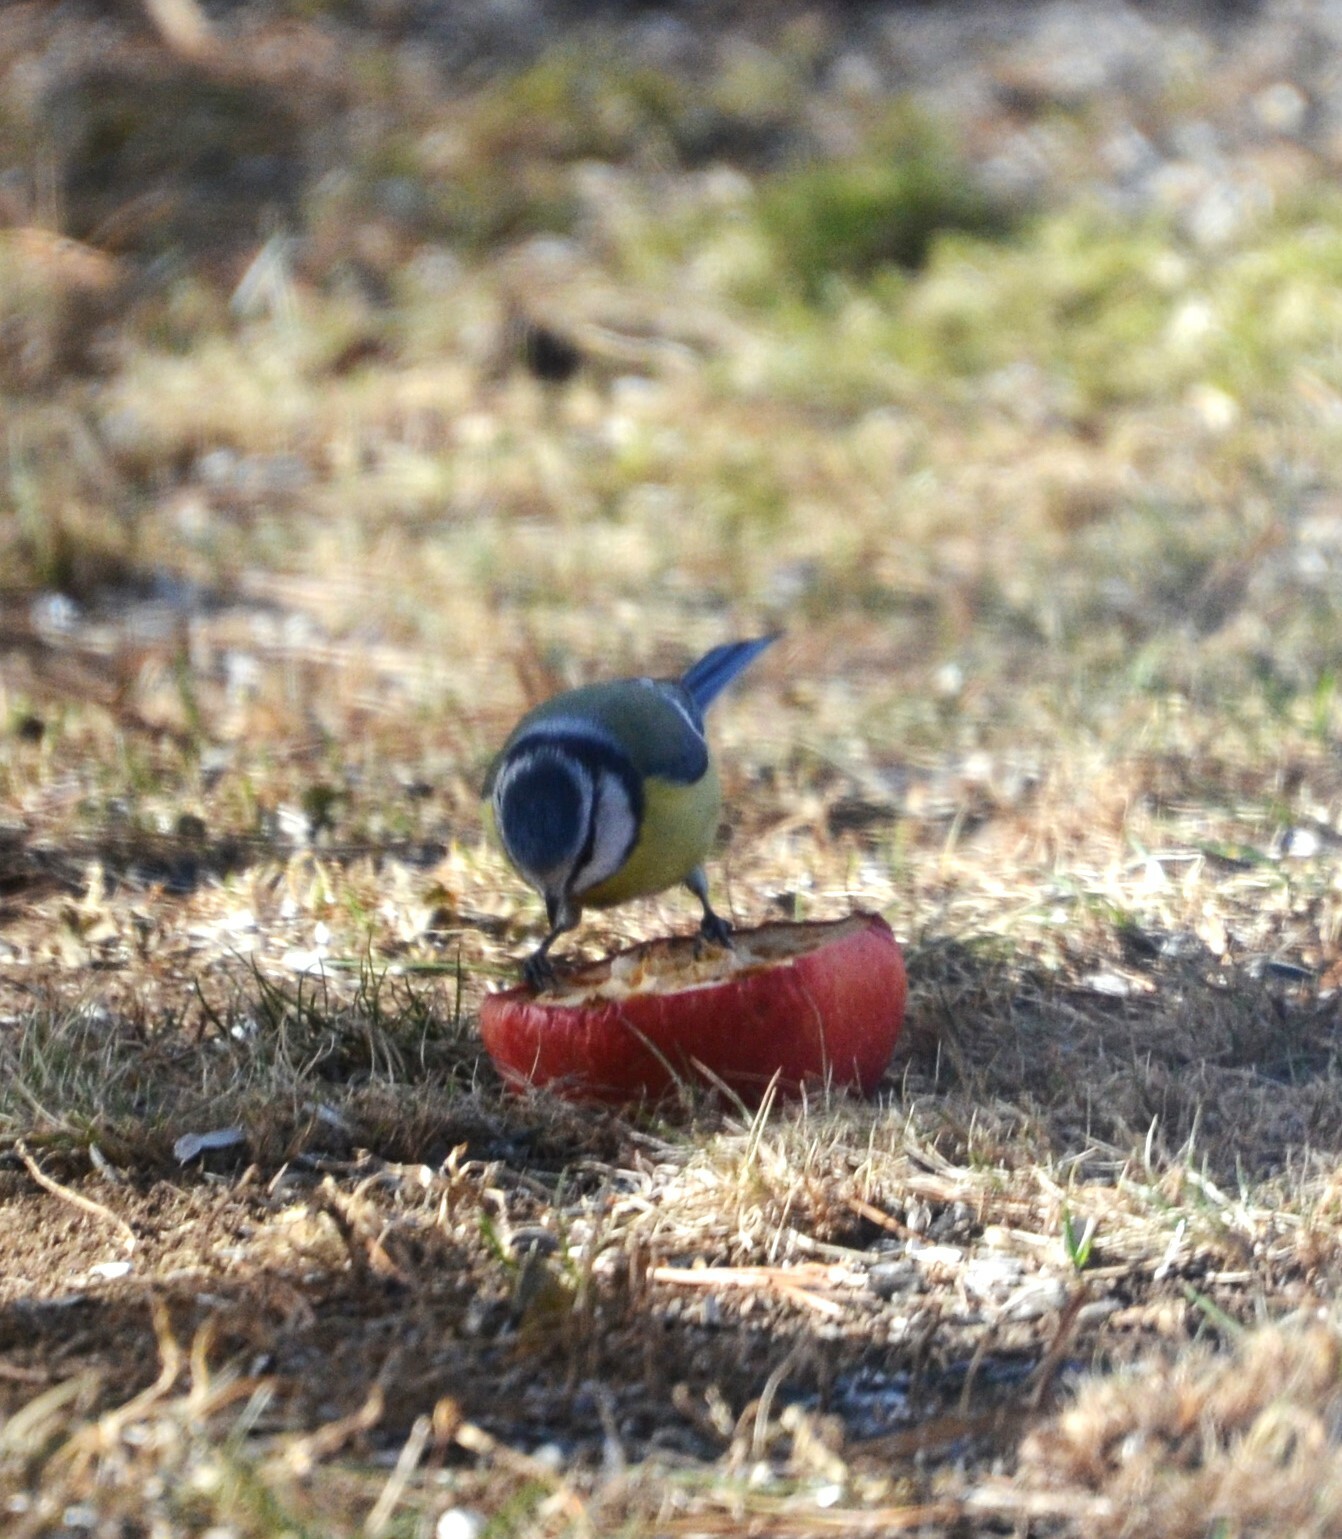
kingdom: Animalia
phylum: Chordata
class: Aves
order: Passeriformes
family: Paridae
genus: Cyanistes
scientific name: Cyanistes caeruleus
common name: Eurasian blue tit
